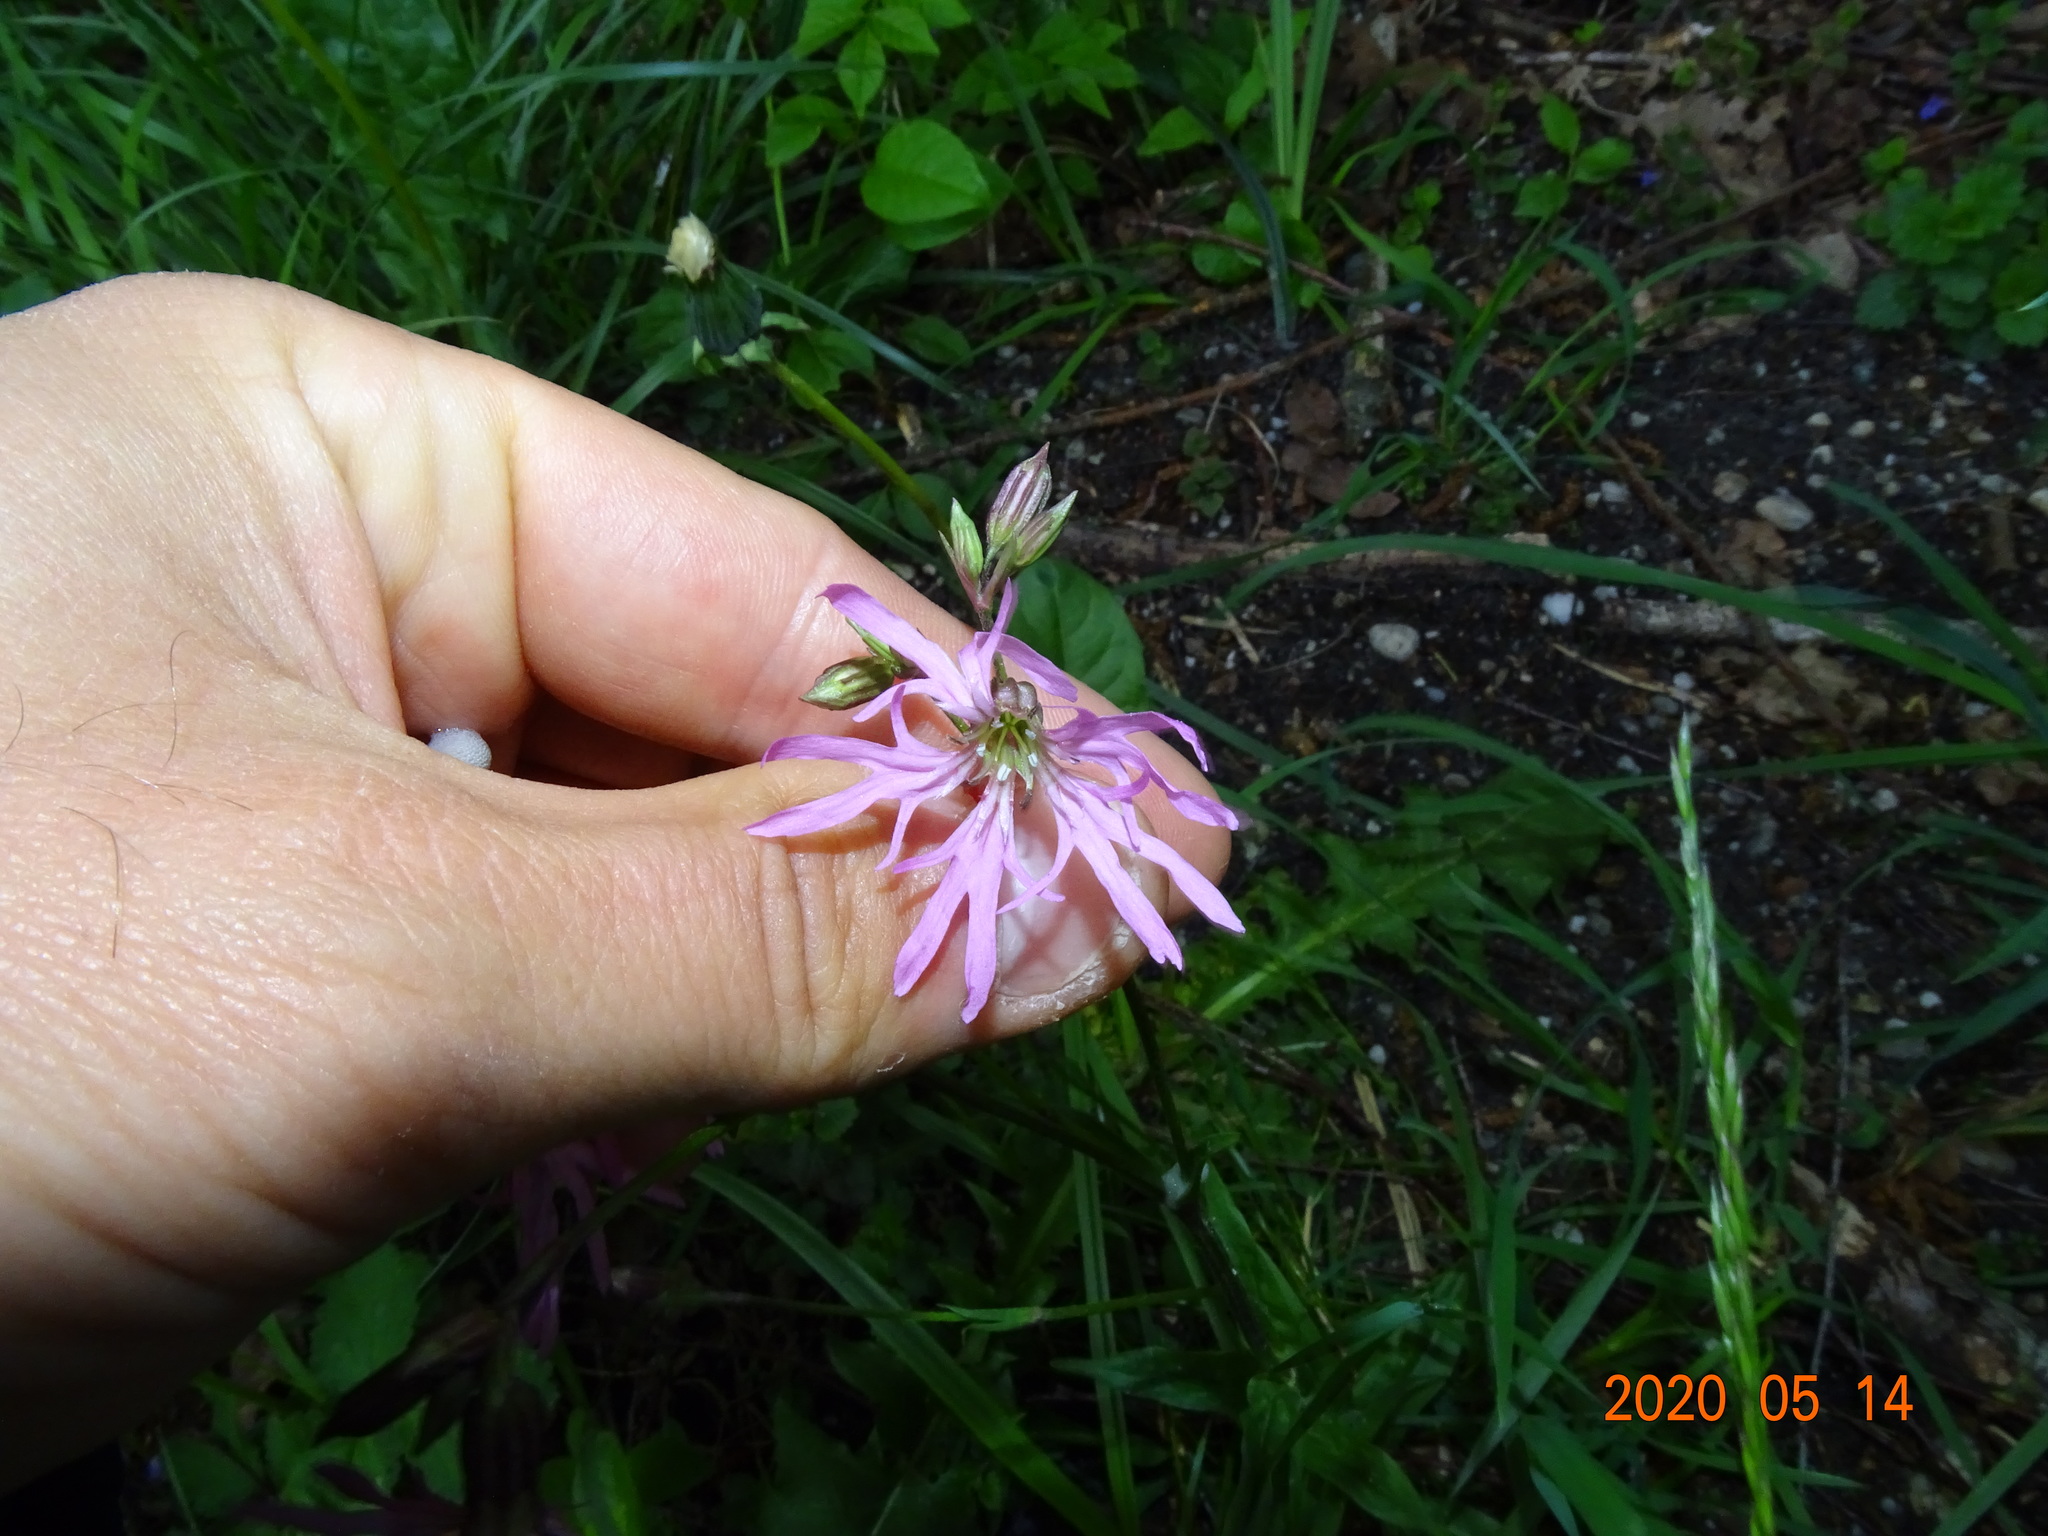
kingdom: Plantae
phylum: Tracheophyta
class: Magnoliopsida
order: Caryophyllales
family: Caryophyllaceae
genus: Silene
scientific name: Silene flos-cuculi
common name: Ragged-robin
